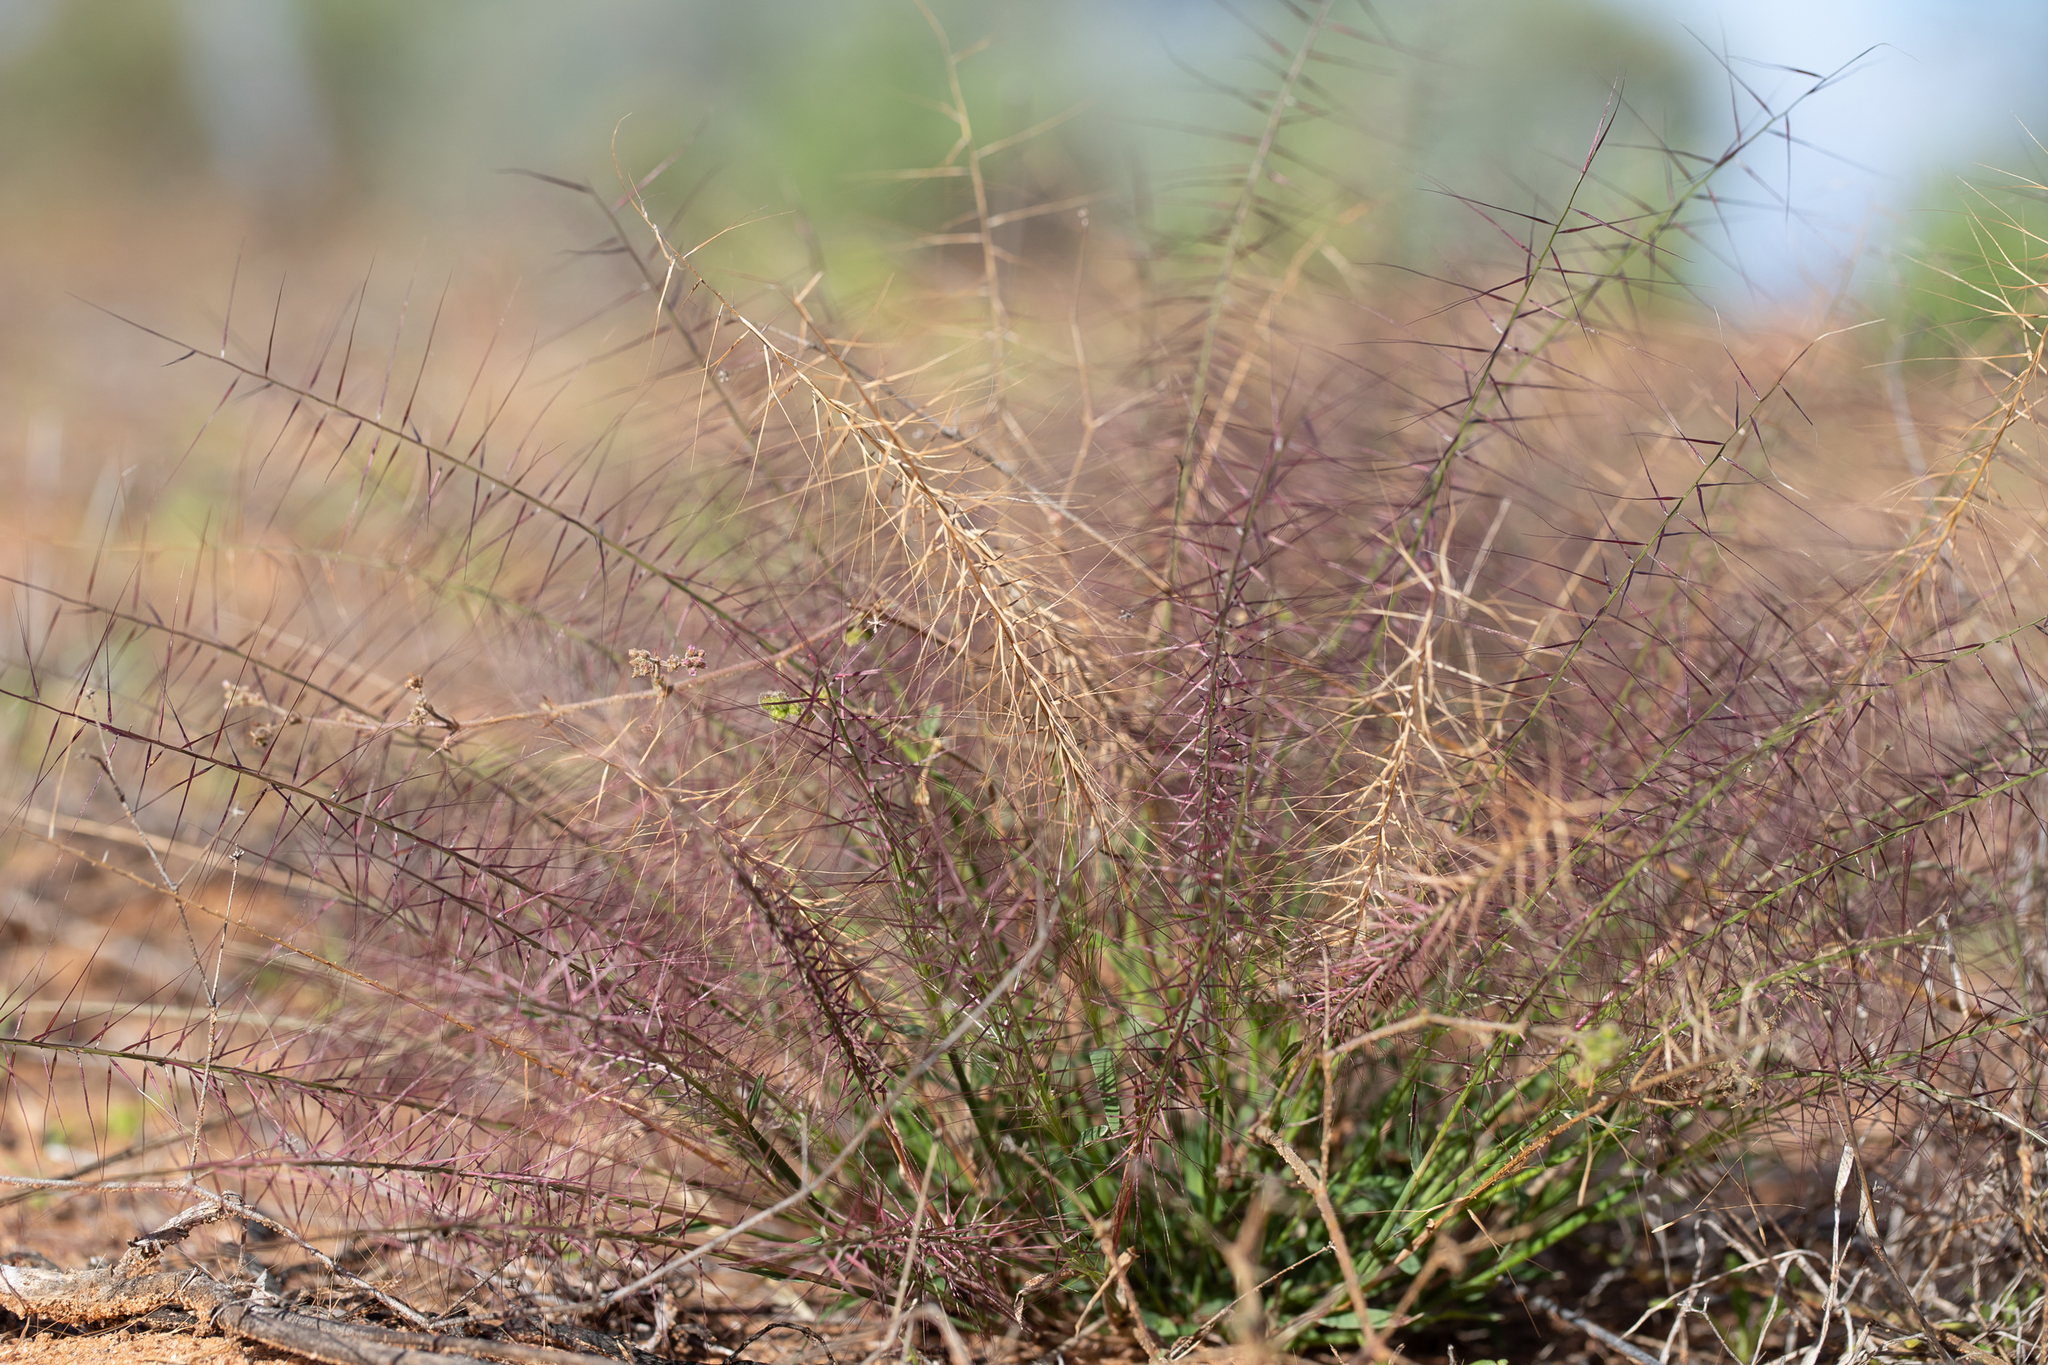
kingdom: Plantae
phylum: Tracheophyta
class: Liliopsida
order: Poales
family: Poaceae
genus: Perotis
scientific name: Perotis rara
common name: Comet grass
